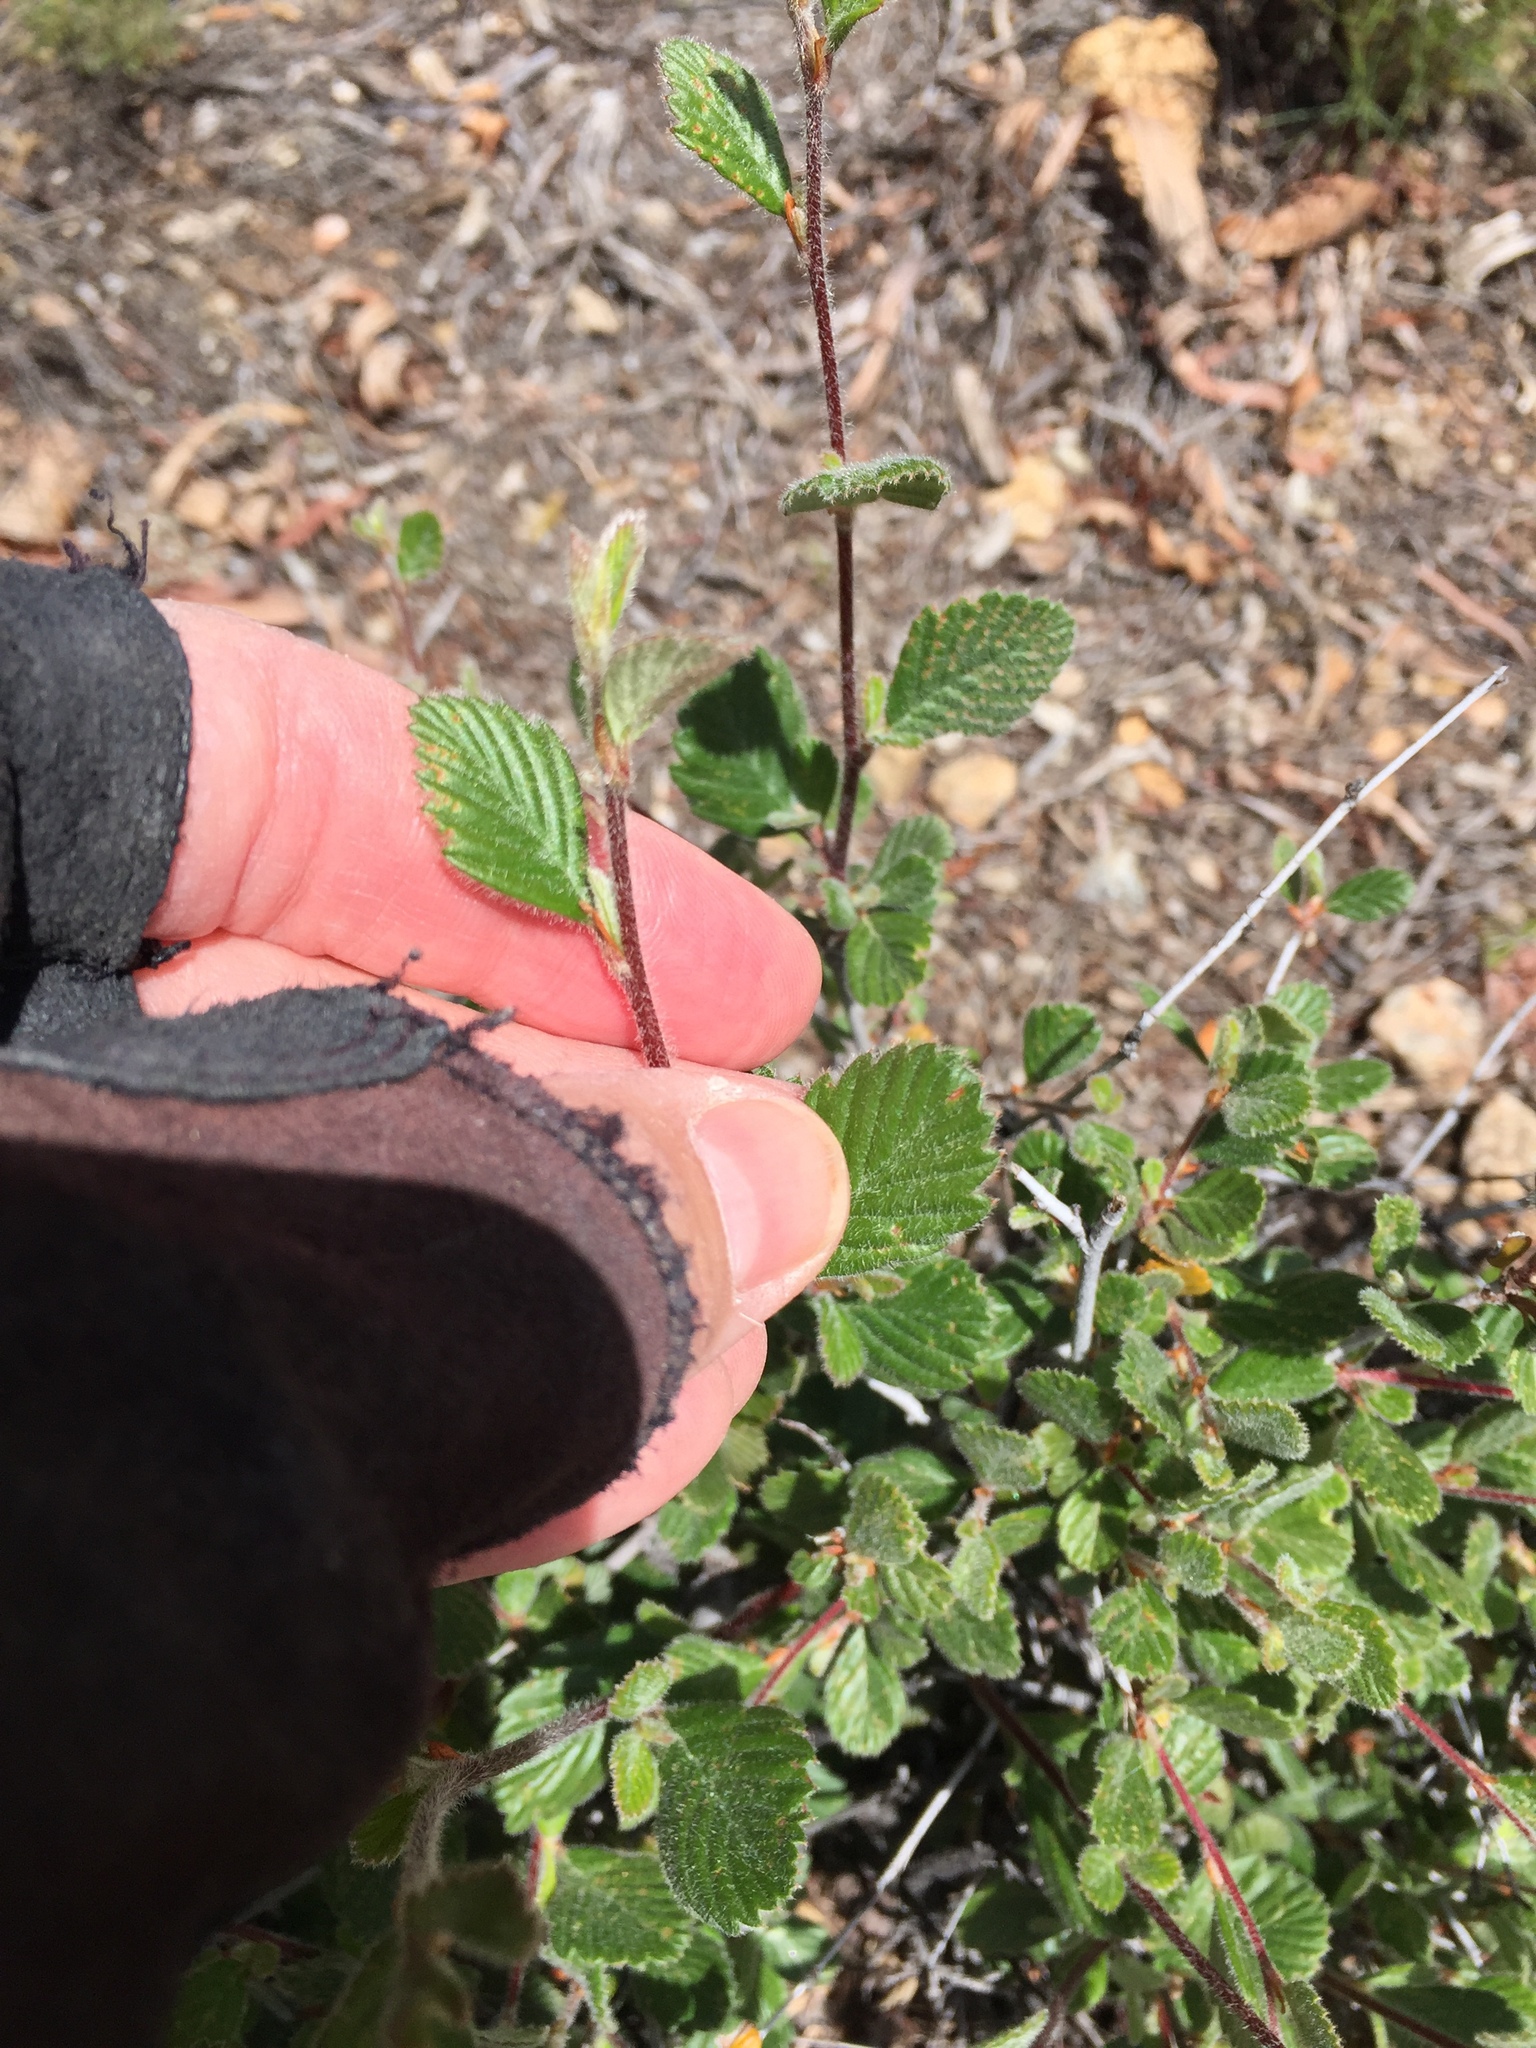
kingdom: Plantae
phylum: Tracheophyta
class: Magnoliopsida
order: Rosales
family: Rosaceae
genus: Cercocarpus
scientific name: Cercocarpus betuloides
